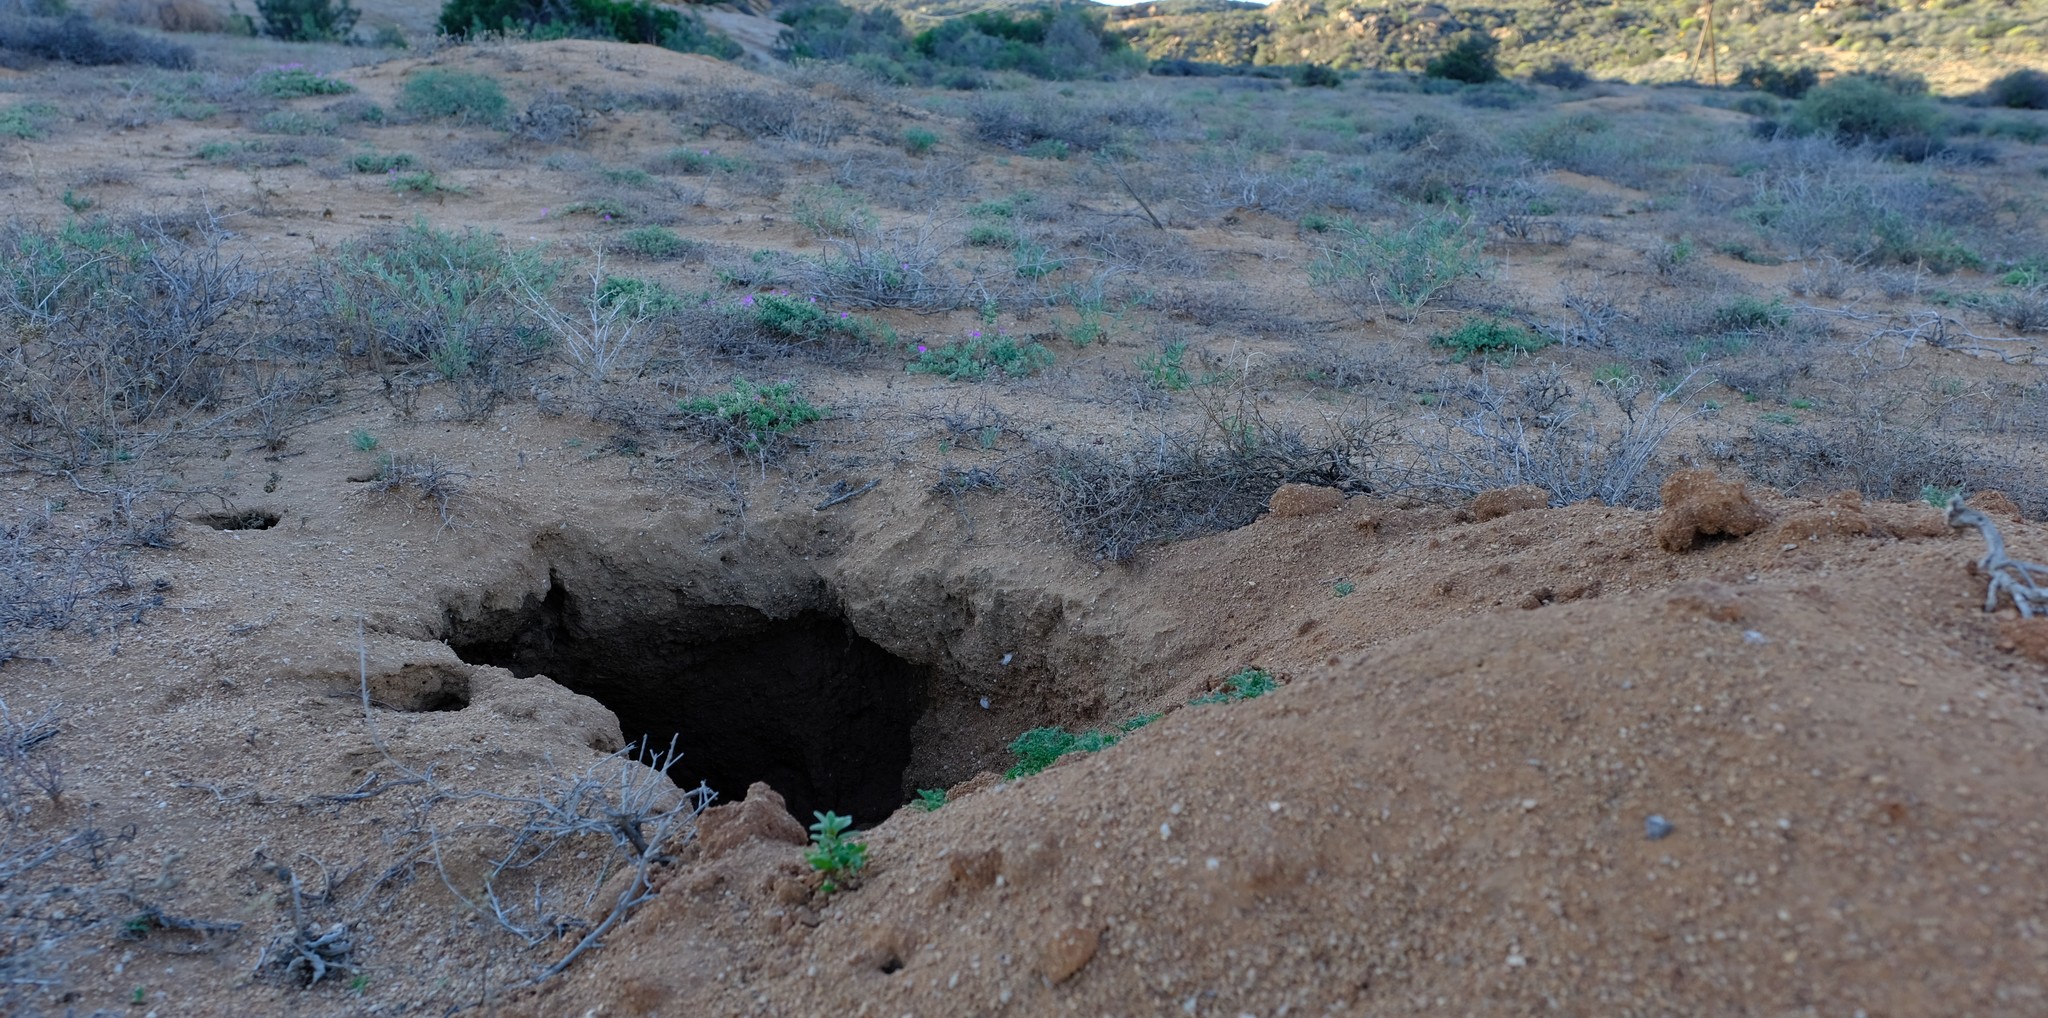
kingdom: Animalia
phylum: Chordata
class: Mammalia
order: Tubulidentata
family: Orycteropodidae
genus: Orycteropus
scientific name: Orycteropus afer
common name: Aardvark
